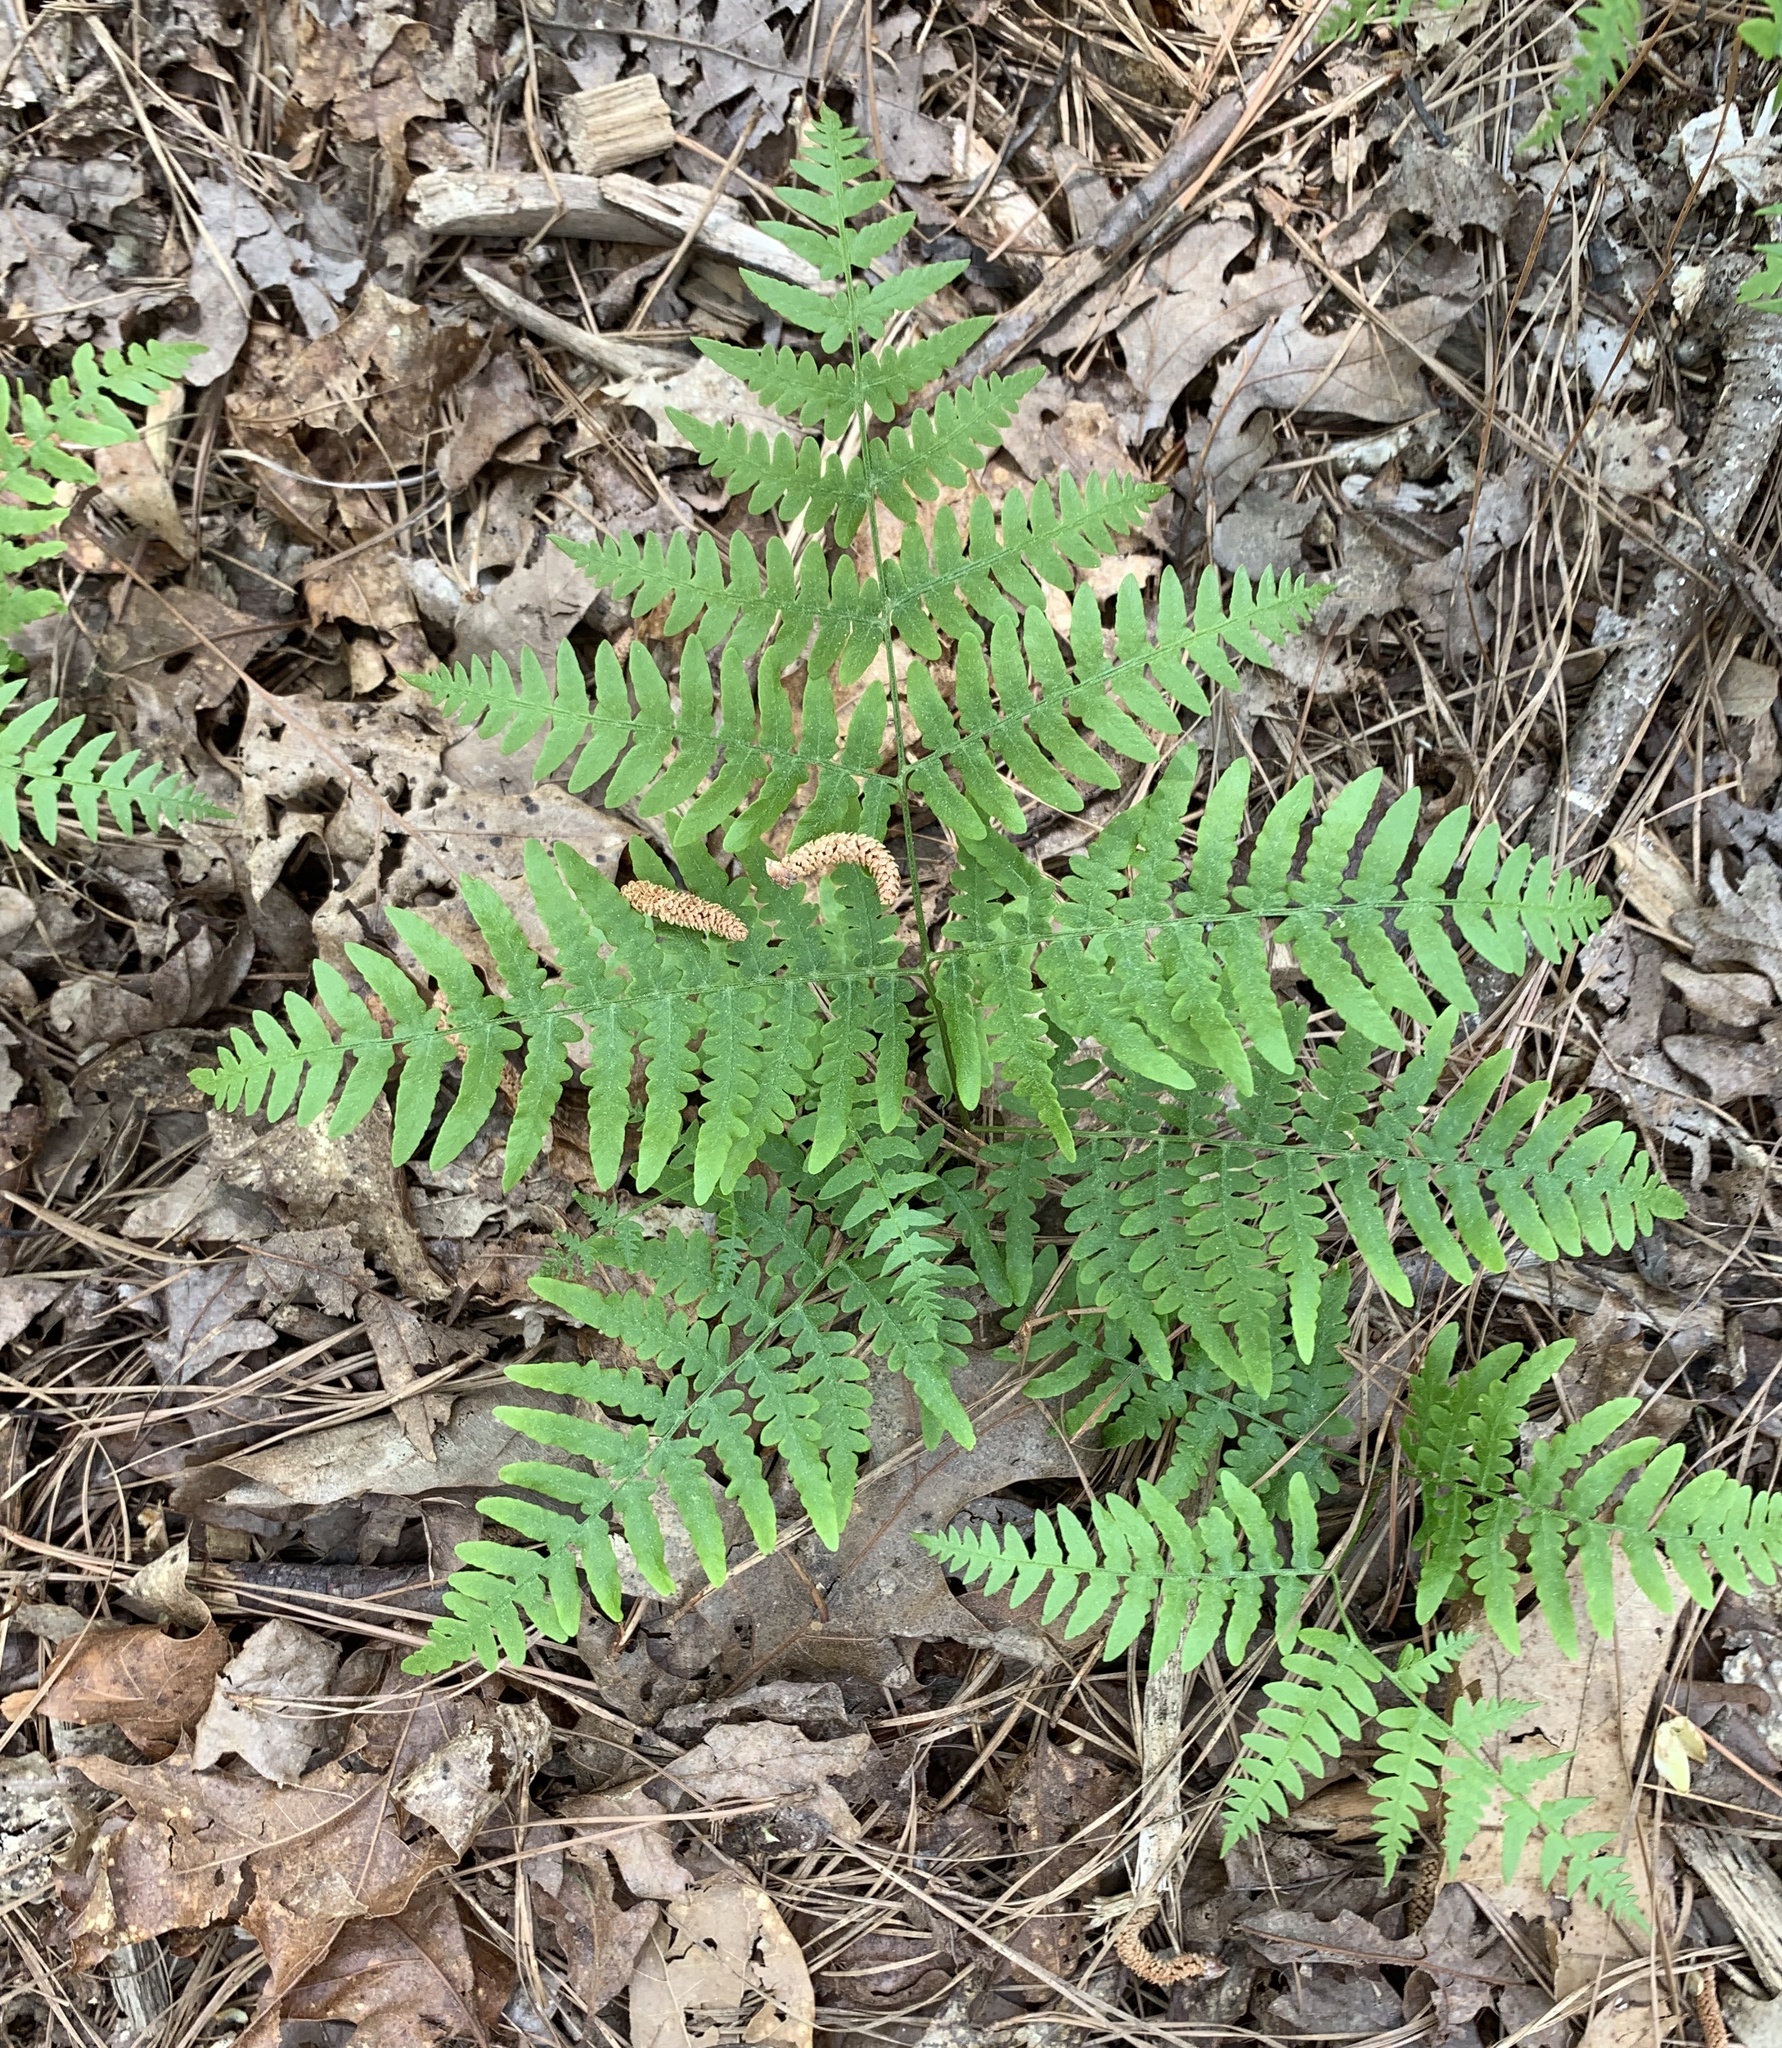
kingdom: Plantae
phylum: Tracheophyta
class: Polypodiopsida
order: Polypodiales
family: Dennstaedtiaceae
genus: Pteridium
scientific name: Pteridium aquilinum
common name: Bracken
